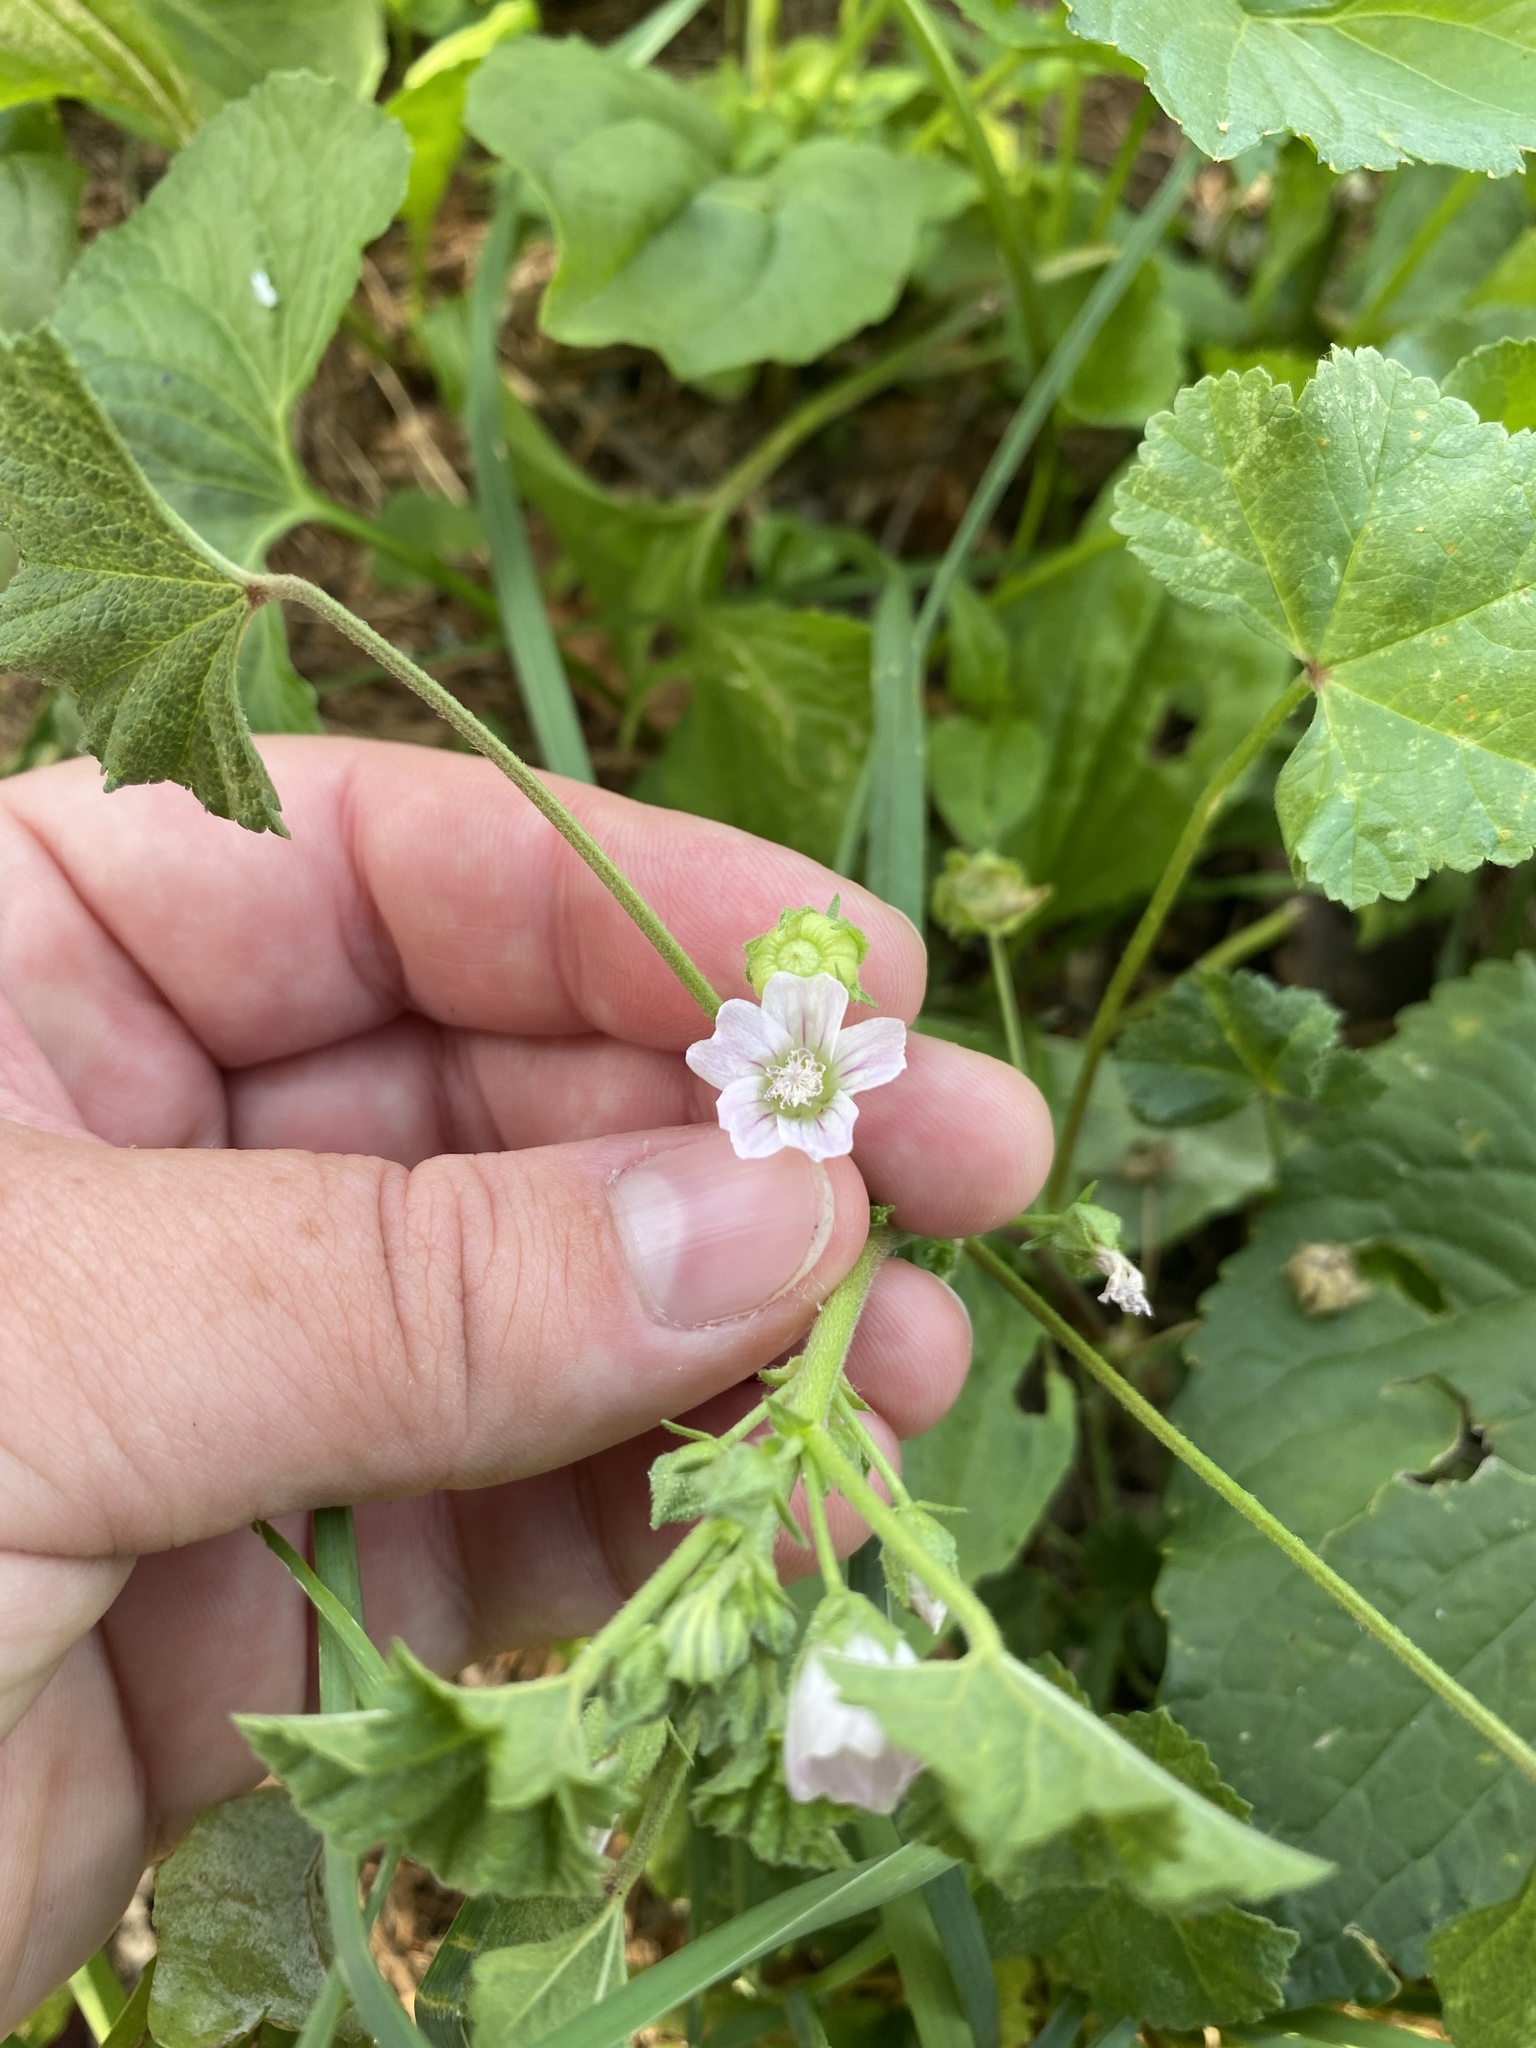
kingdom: Plantae
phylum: Tracheophyta
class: Magnoliopsida
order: Malvales
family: Malvaceae
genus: Malva
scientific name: Malva neglecta
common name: Common mallow
